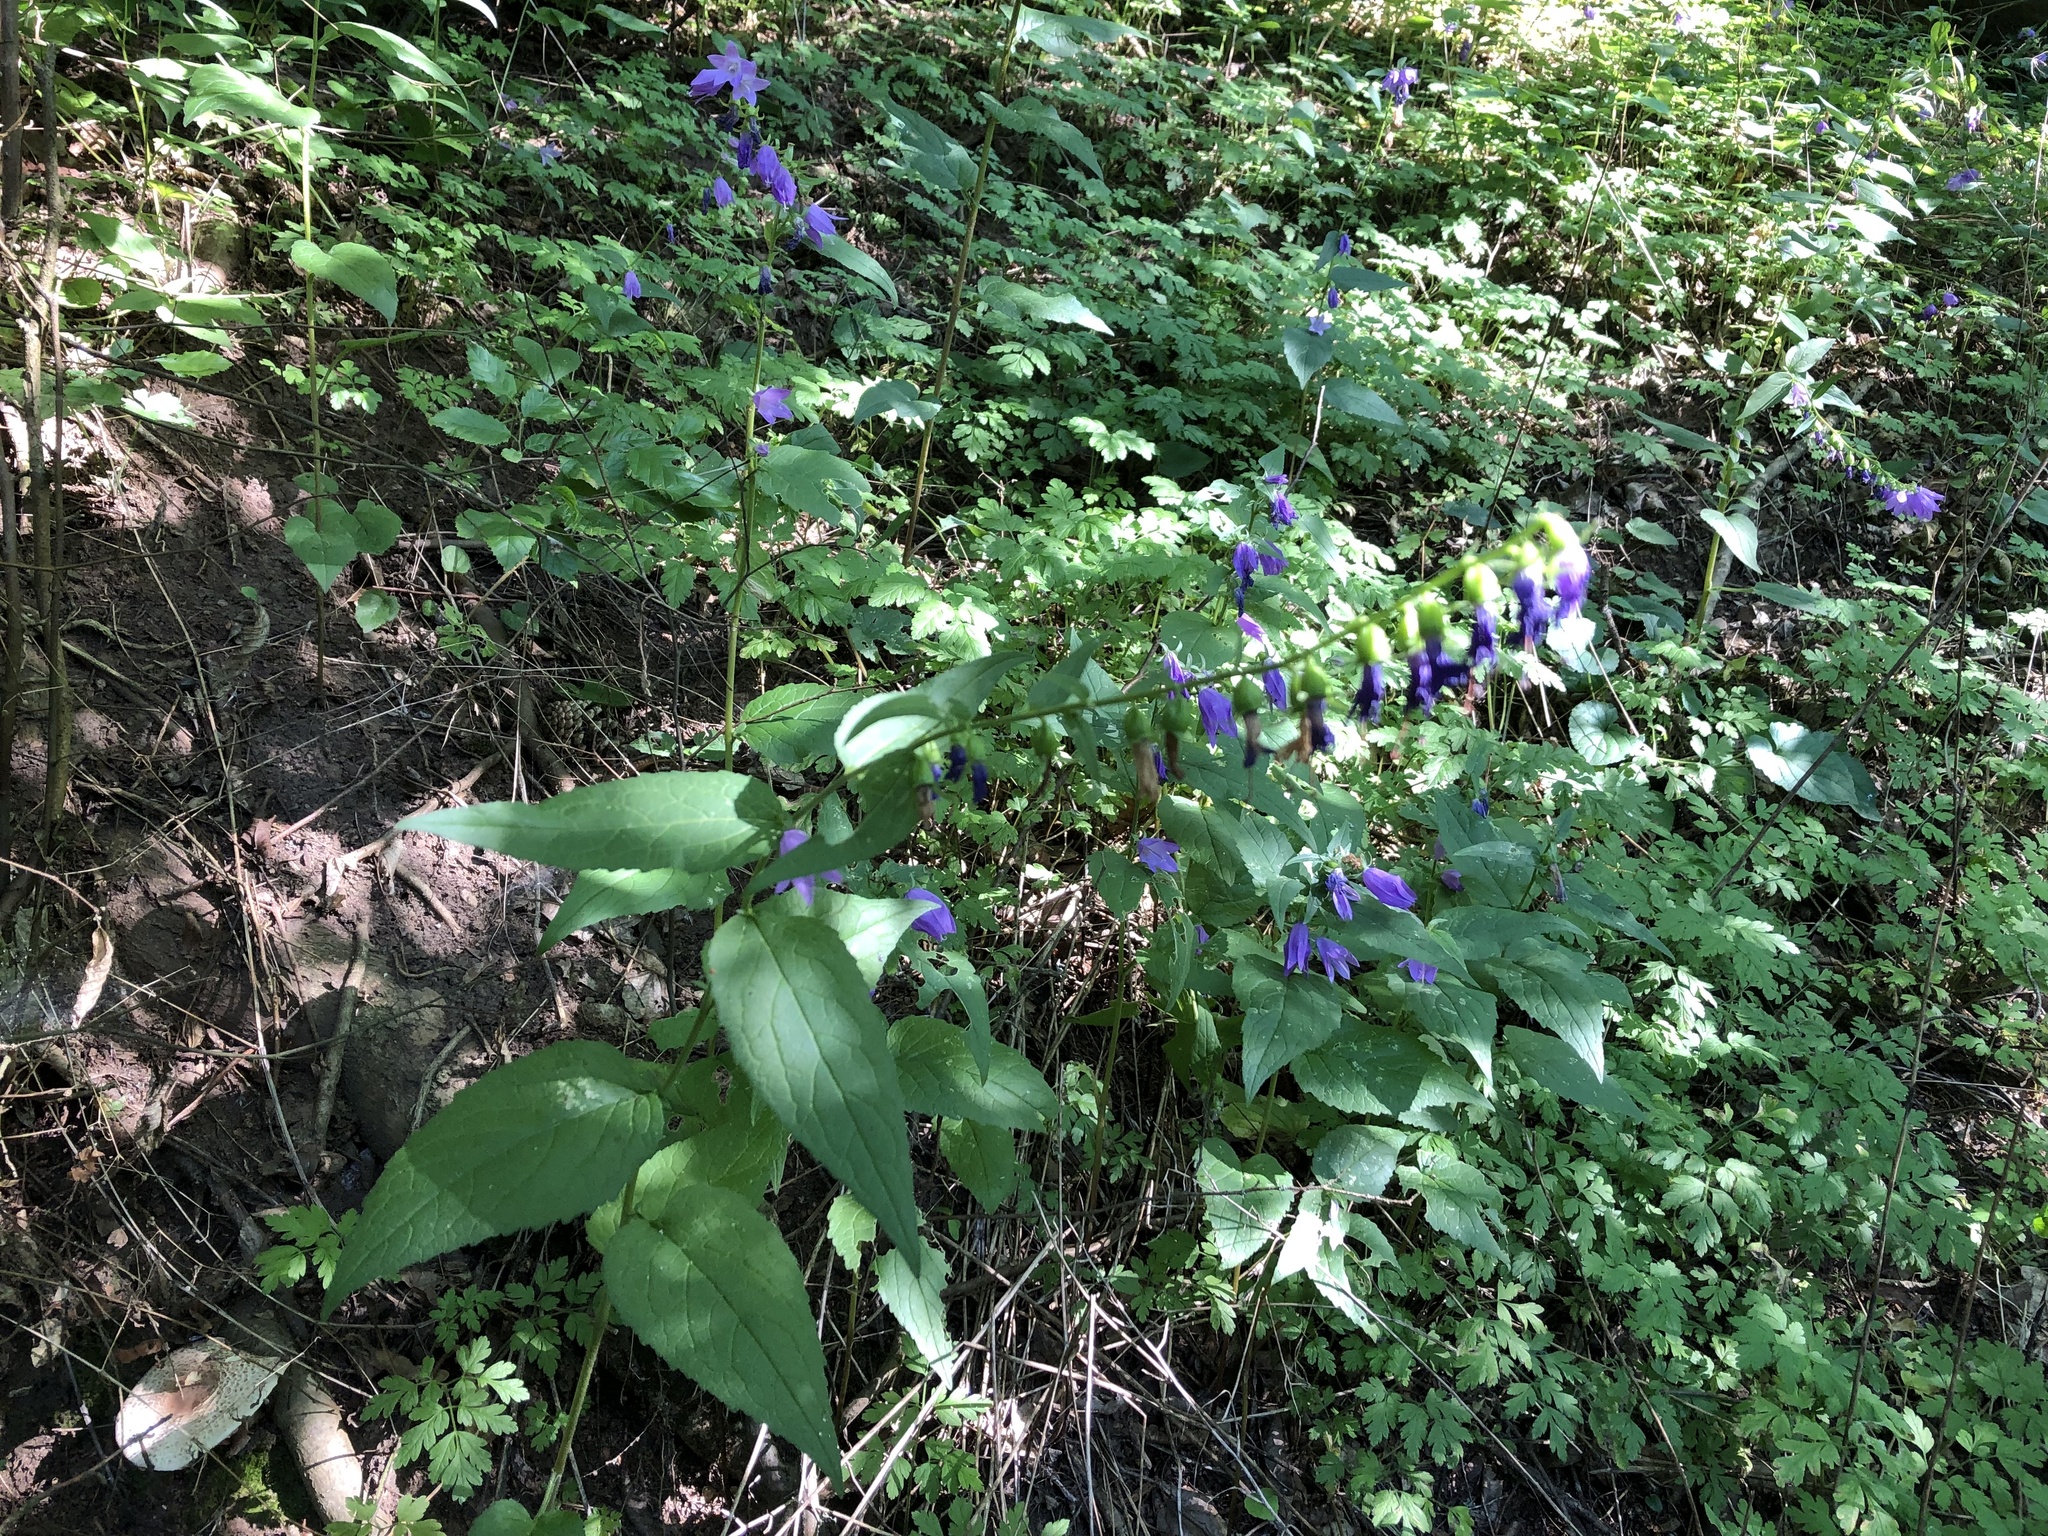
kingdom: Plantae
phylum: Tracheophyta
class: Magnoliopsida
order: Asterales
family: Campanulaceae
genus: Campanula
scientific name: Campanula rapunculoides
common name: Creeping bellflower
